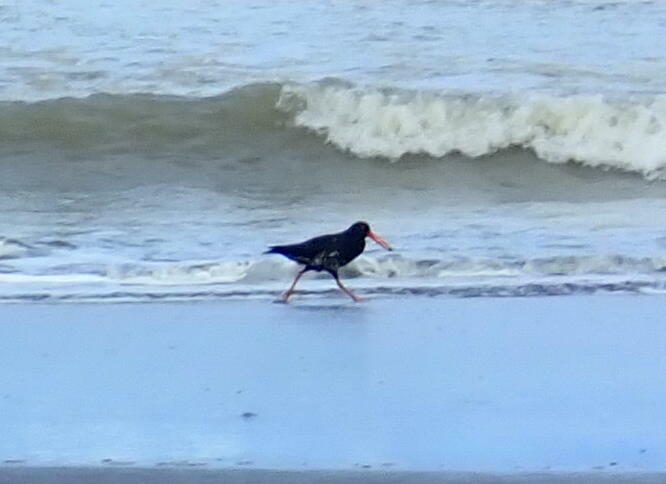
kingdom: Animalia
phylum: Chordata
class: Aves
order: Charadriiformes
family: Haematopodidae
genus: Haematopus
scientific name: Haematopus unicolor
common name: Variable oystercatcher
